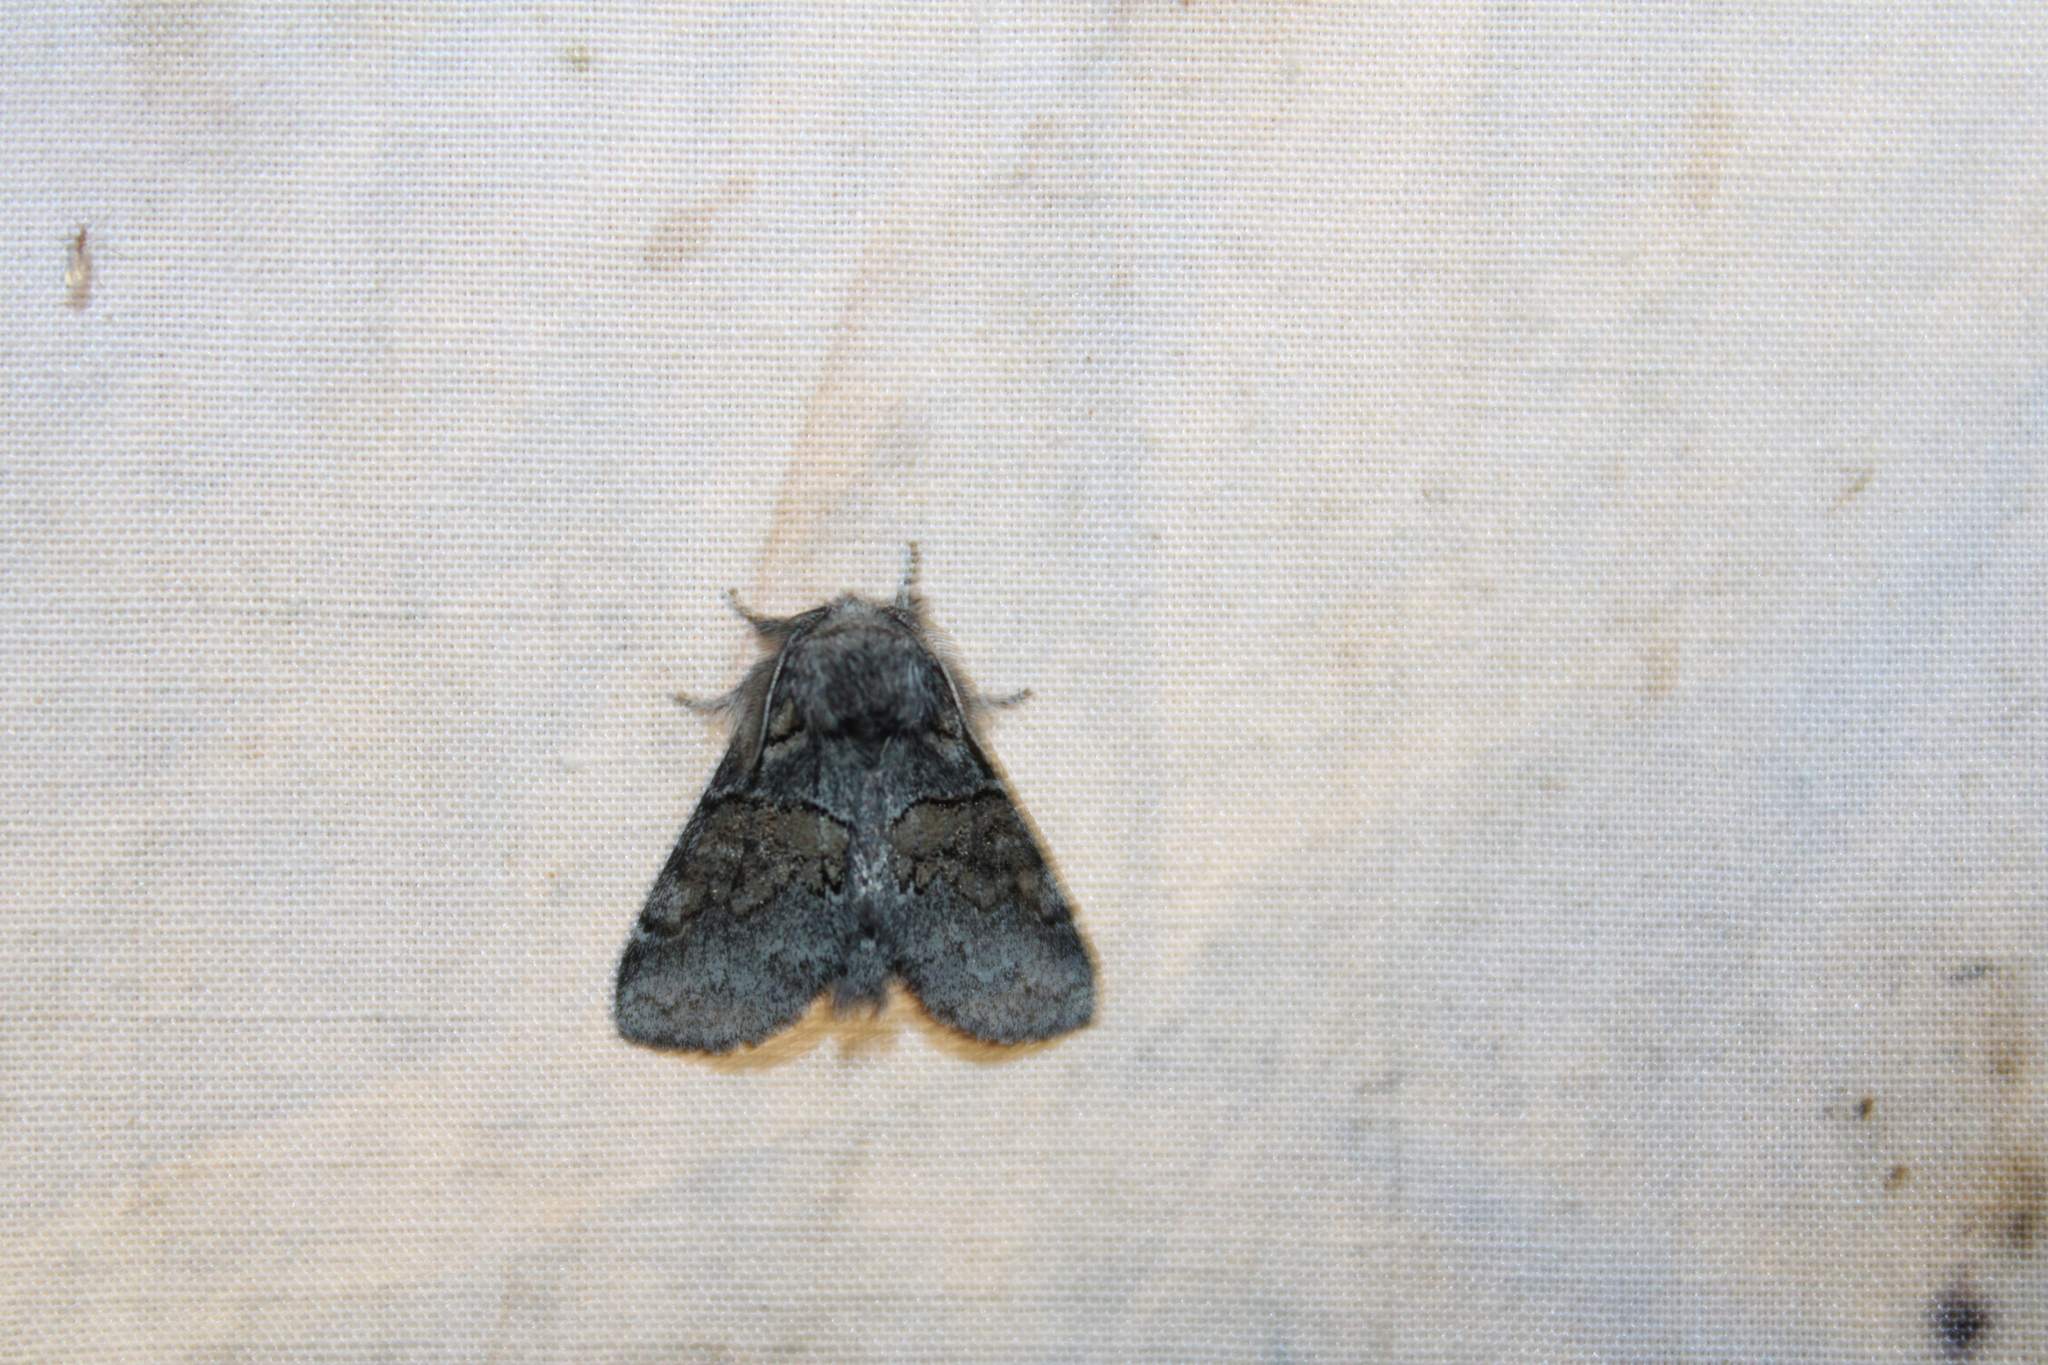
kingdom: Animalia
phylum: Arthropoda
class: Insecta
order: Lepidoptera
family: Notodontidae
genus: Gluphisia
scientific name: Gluphisia septentrionis
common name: Common gluphisia
